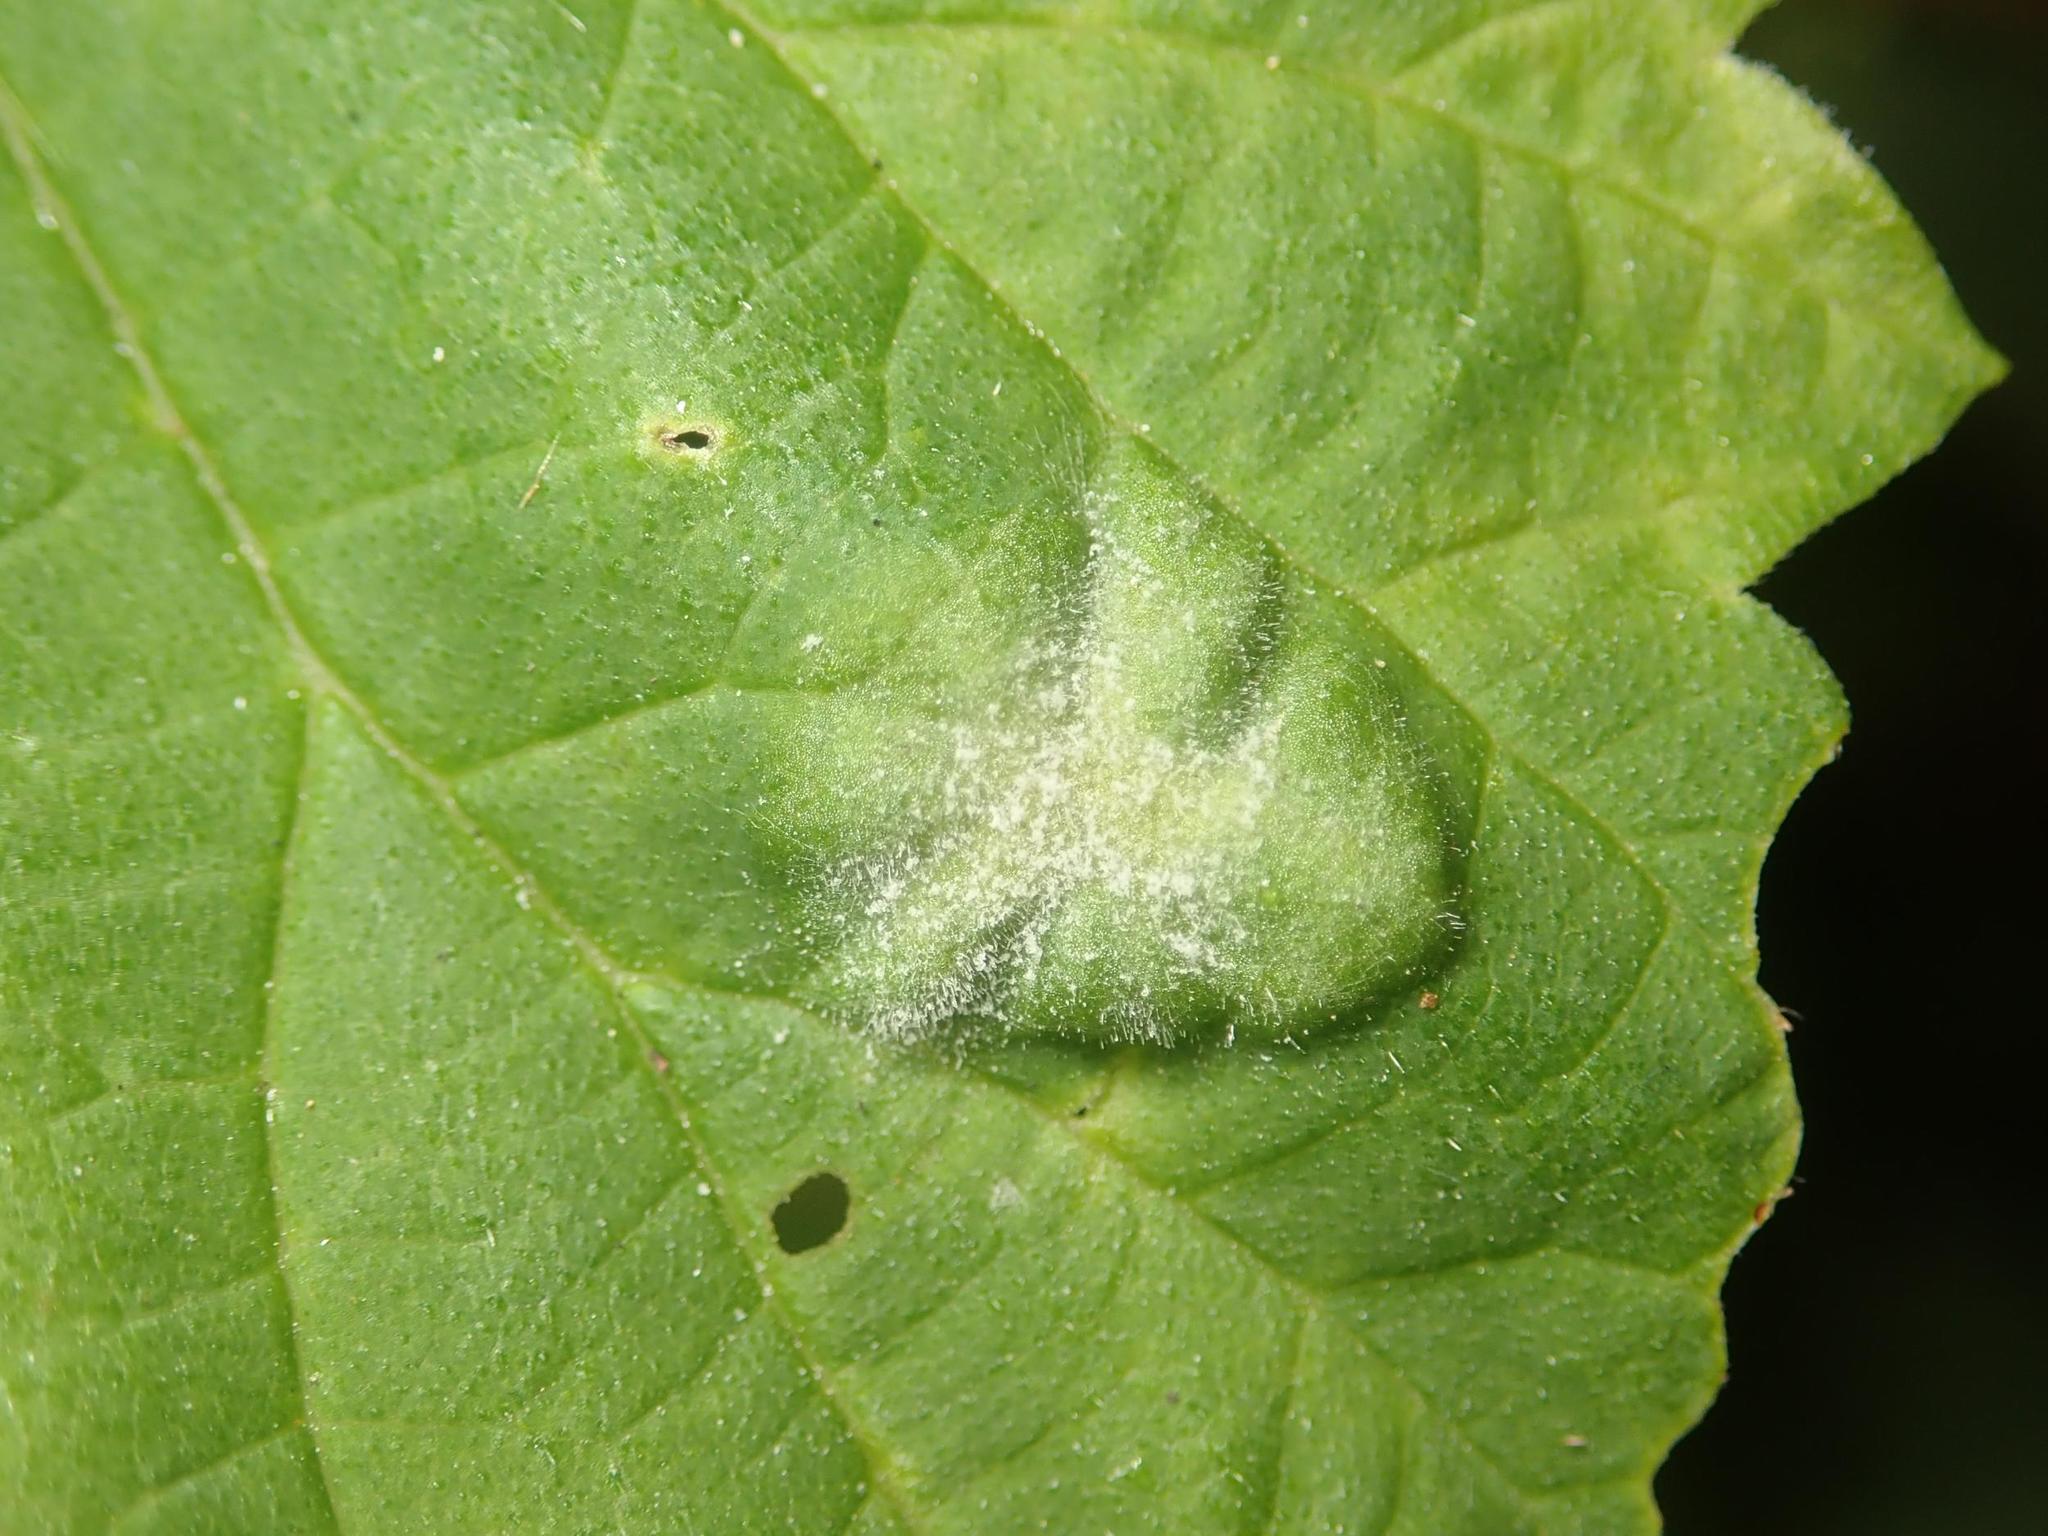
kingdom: Fungi
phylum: Ascomycota
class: Leotiomycetes
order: Helotiales
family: Erysiphaceae
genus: Podosphaera
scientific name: Podosphaera macularis
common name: Powdery mildew
